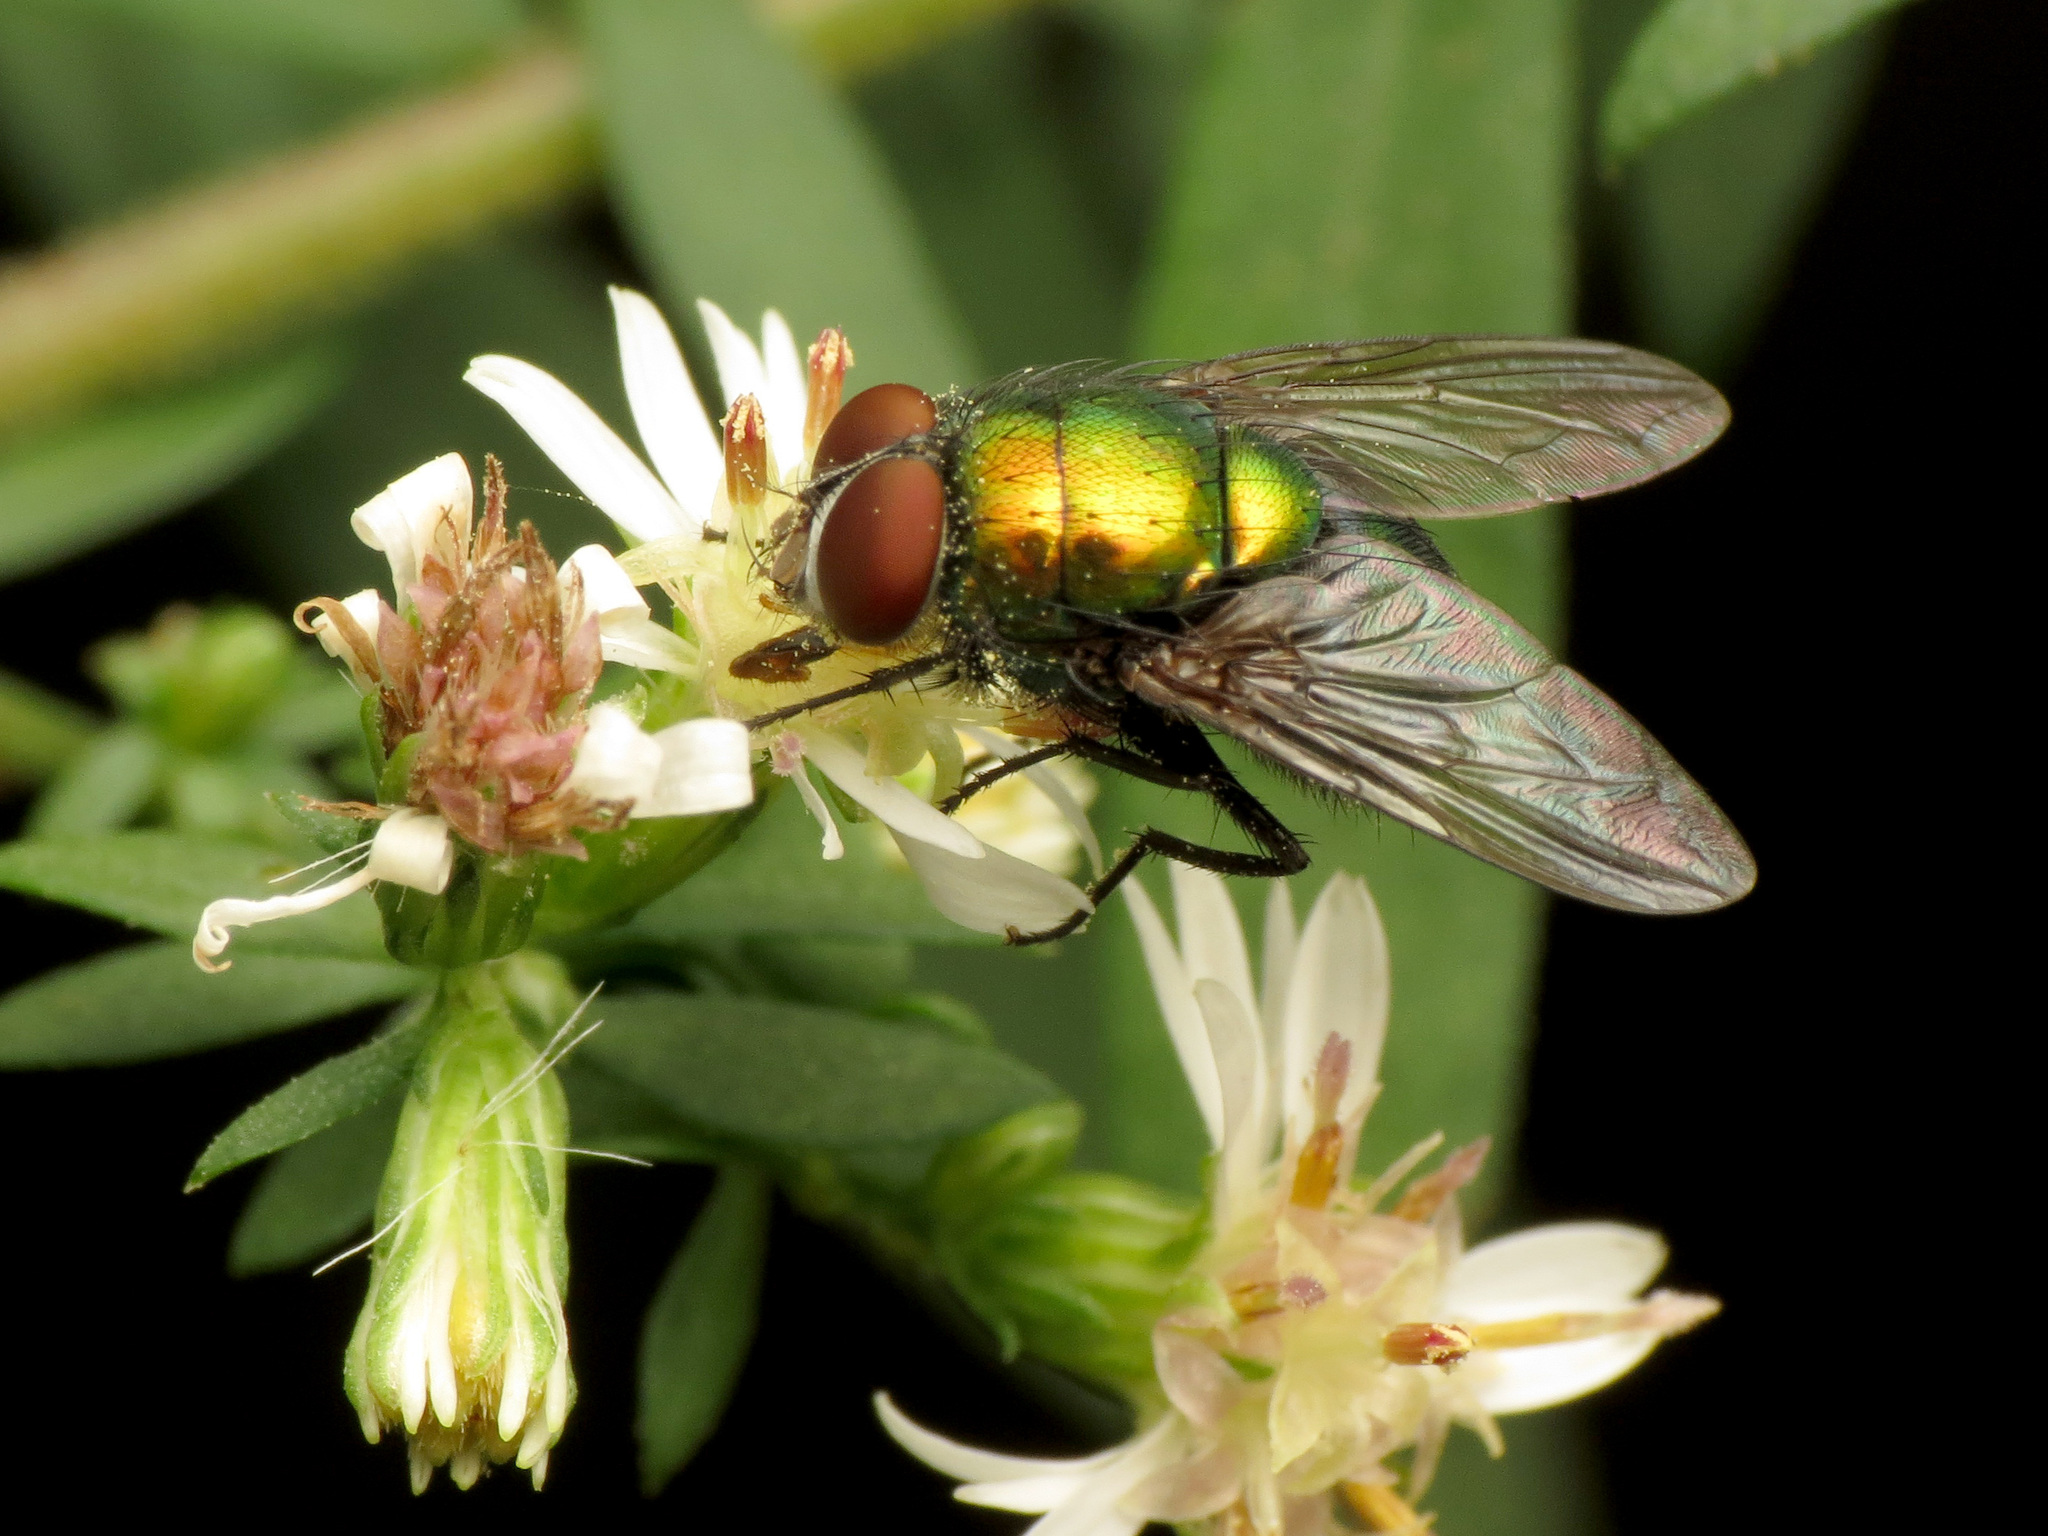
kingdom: Animalia
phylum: Arthropoda
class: Insecta
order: Diptera
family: Calliphoridae
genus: Lucilia
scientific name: Lucilia caeruleiviridis
